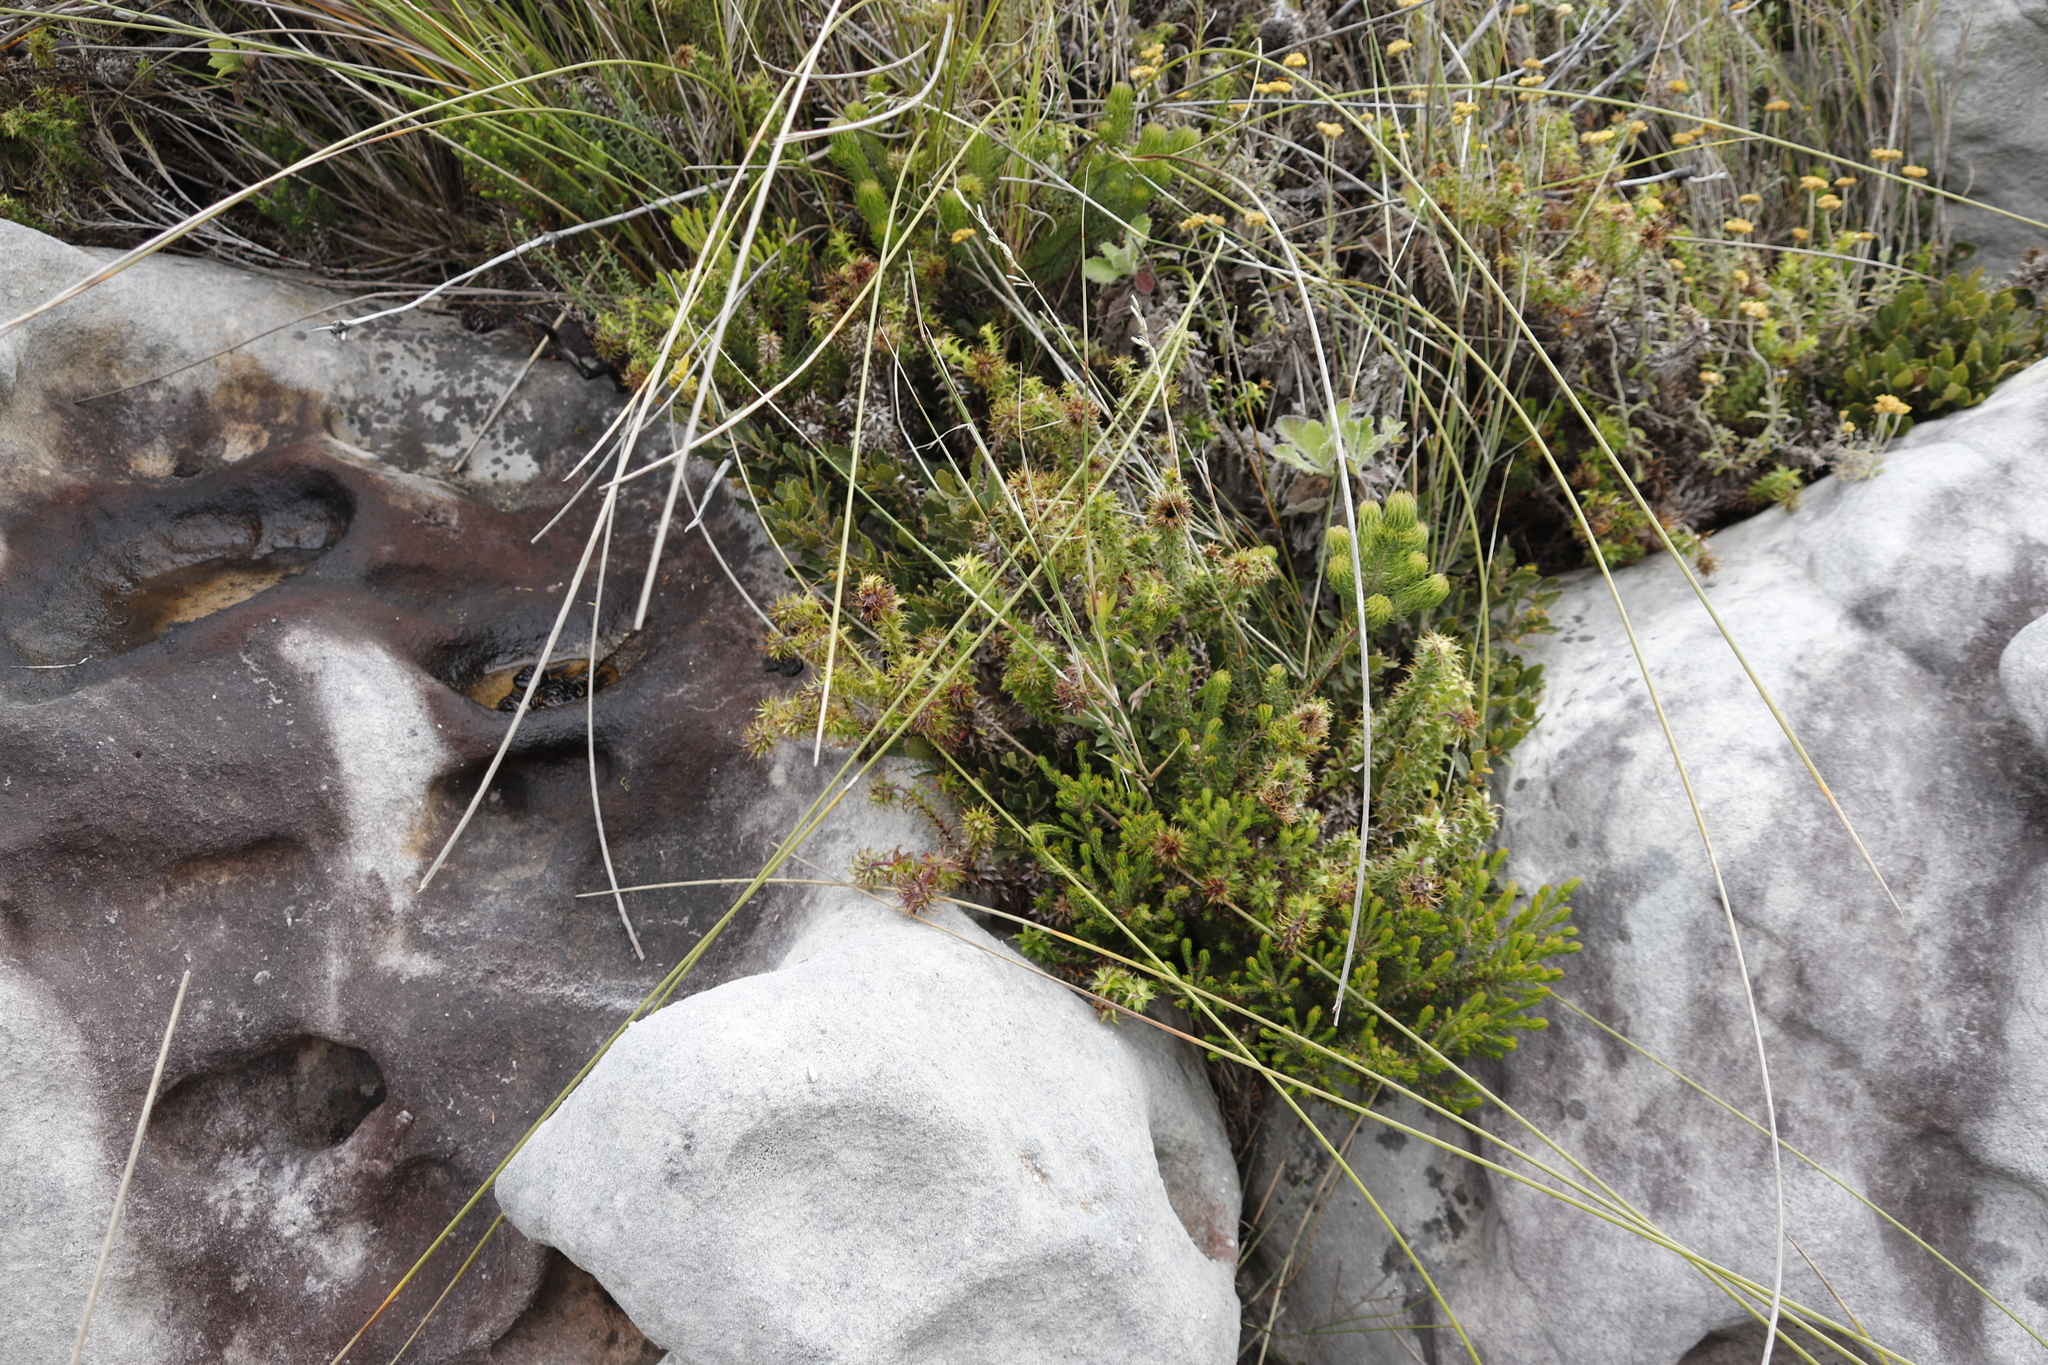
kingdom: Plantae
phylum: Tracheophyta
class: Magnoliopsida
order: Asterales
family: Asteraceae
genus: Cullumia
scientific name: Cullumia setosa
